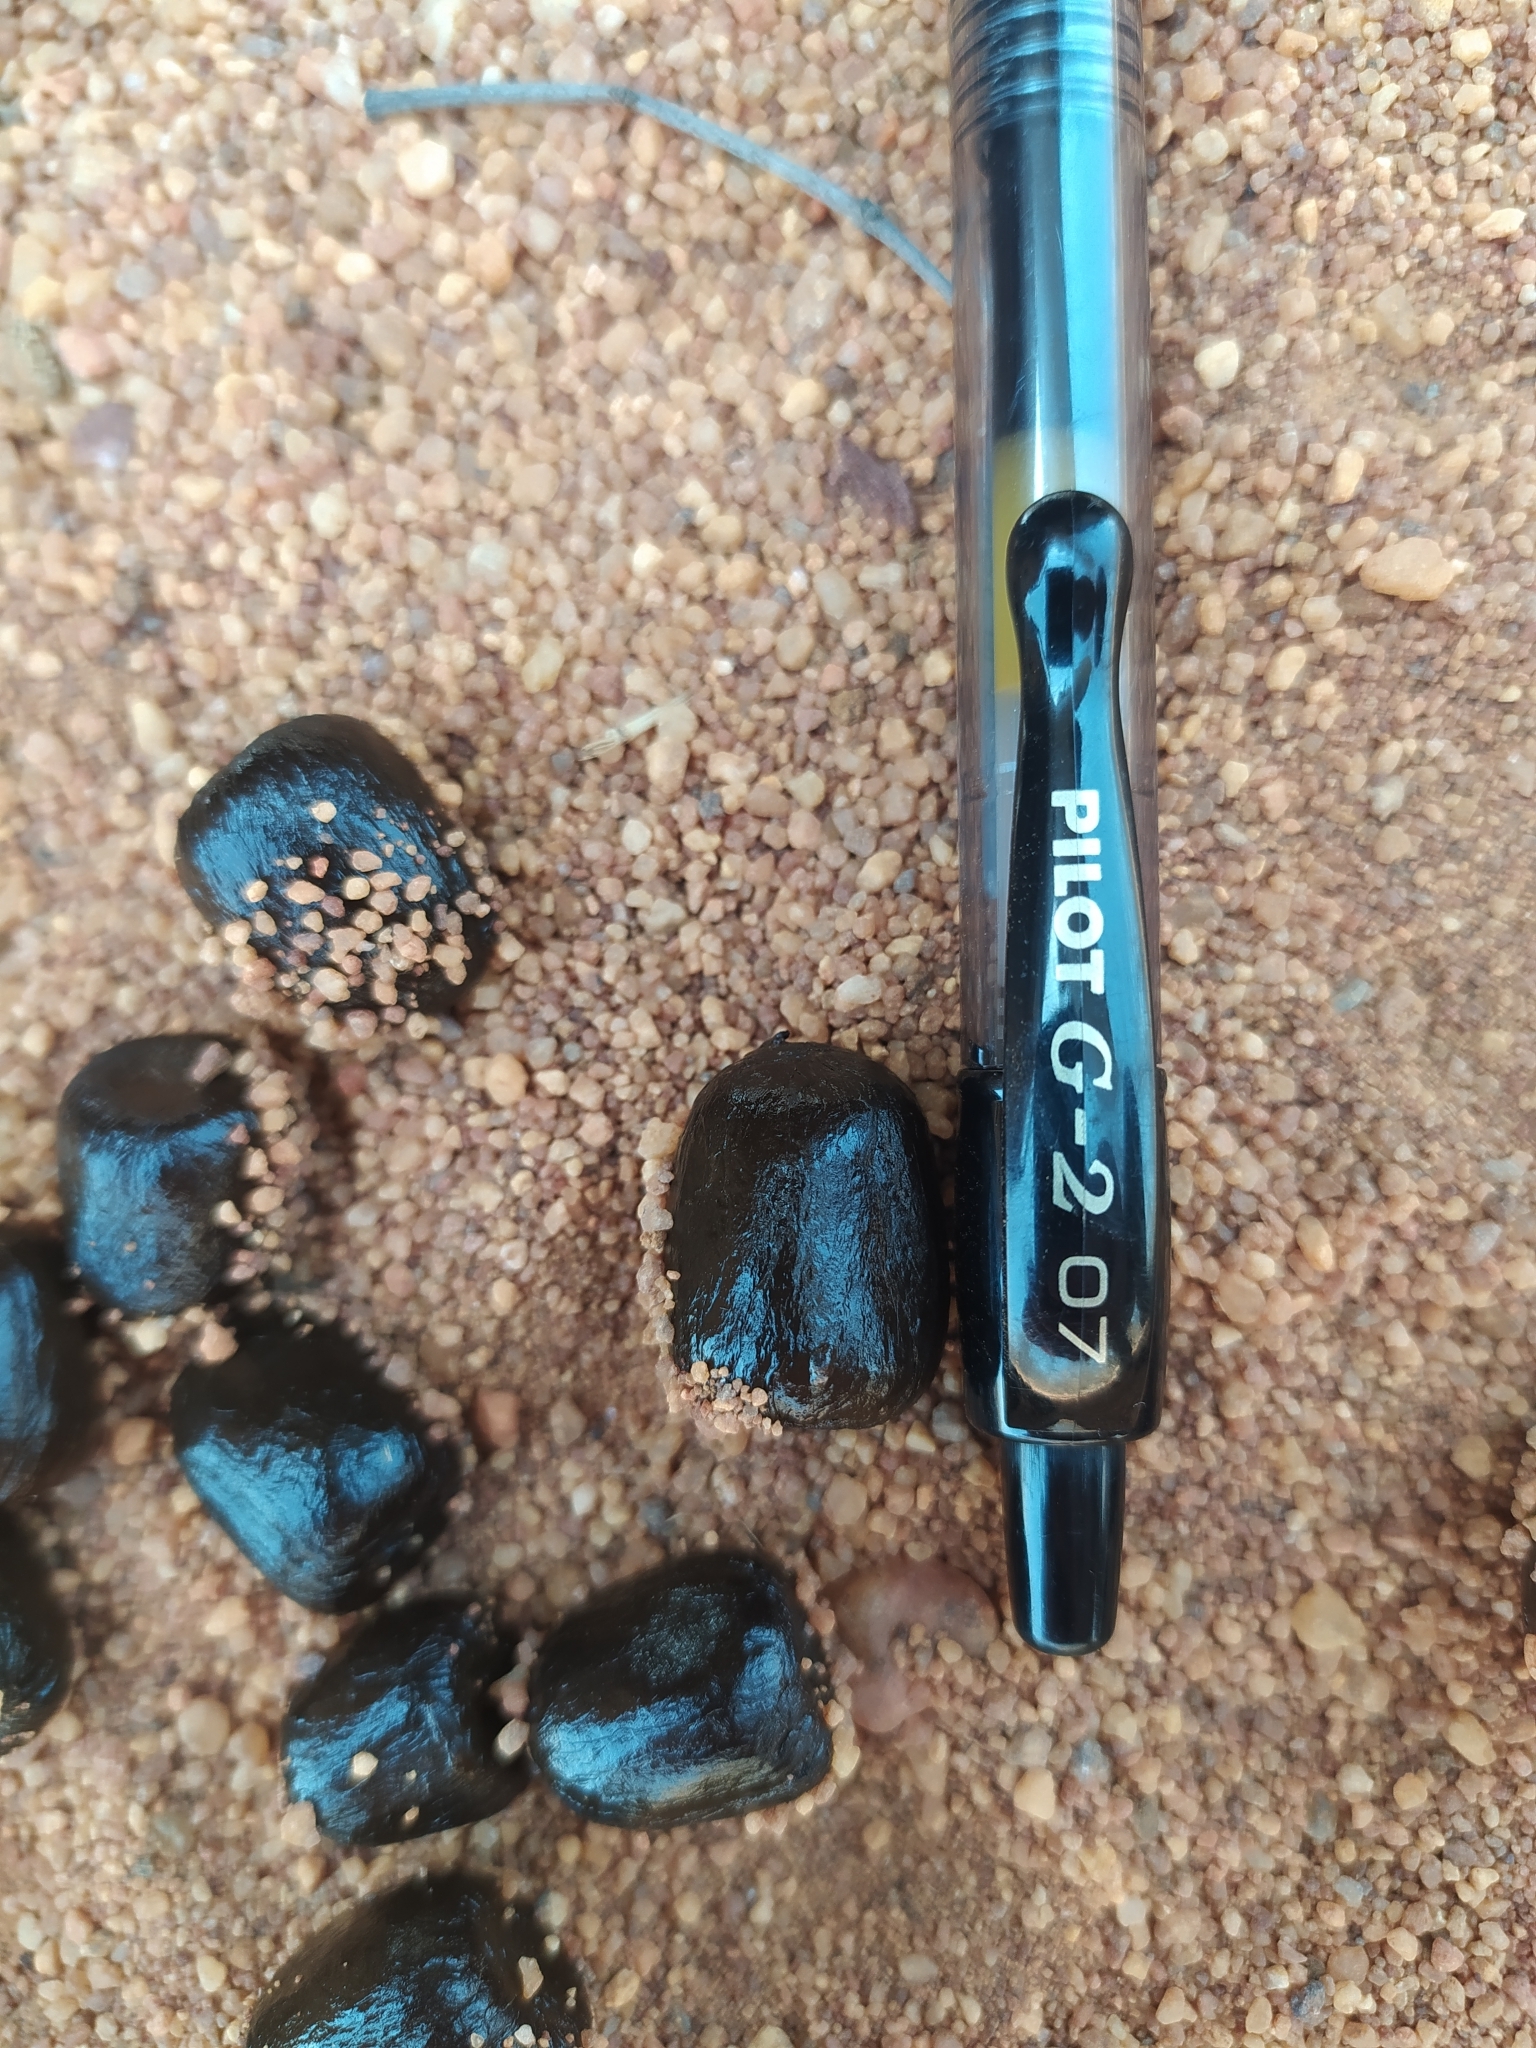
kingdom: Animalia
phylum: Chordata
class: Mammalia
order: Artiodactyla
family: Bovidae
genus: Hippotragus
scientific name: Hippotragus equinus
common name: Roan antelope
